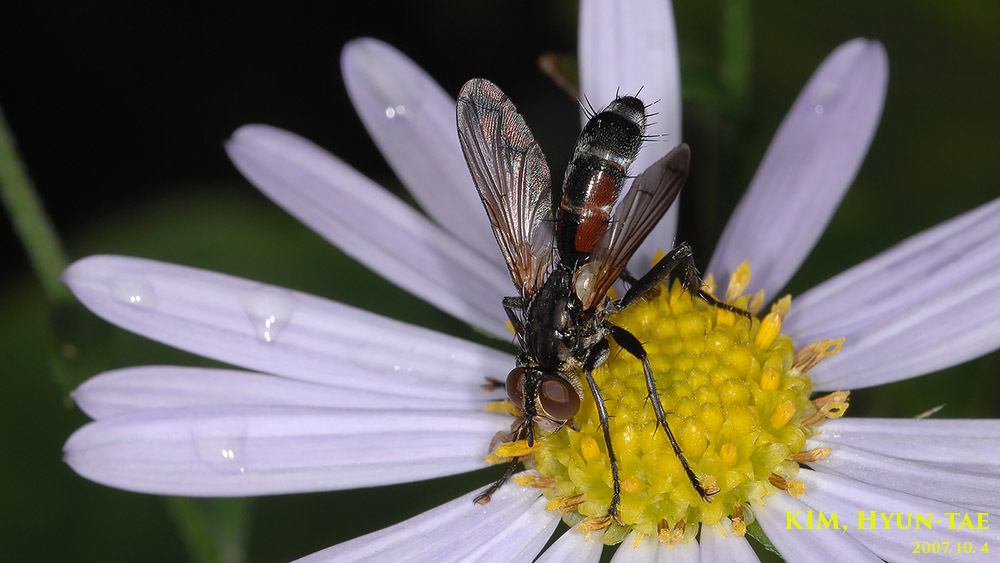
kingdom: Animalia
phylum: Arthropoda
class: Insecta
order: Diptera
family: Tachinidae
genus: Cylindromyia
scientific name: Cylindromyia brassicaria
